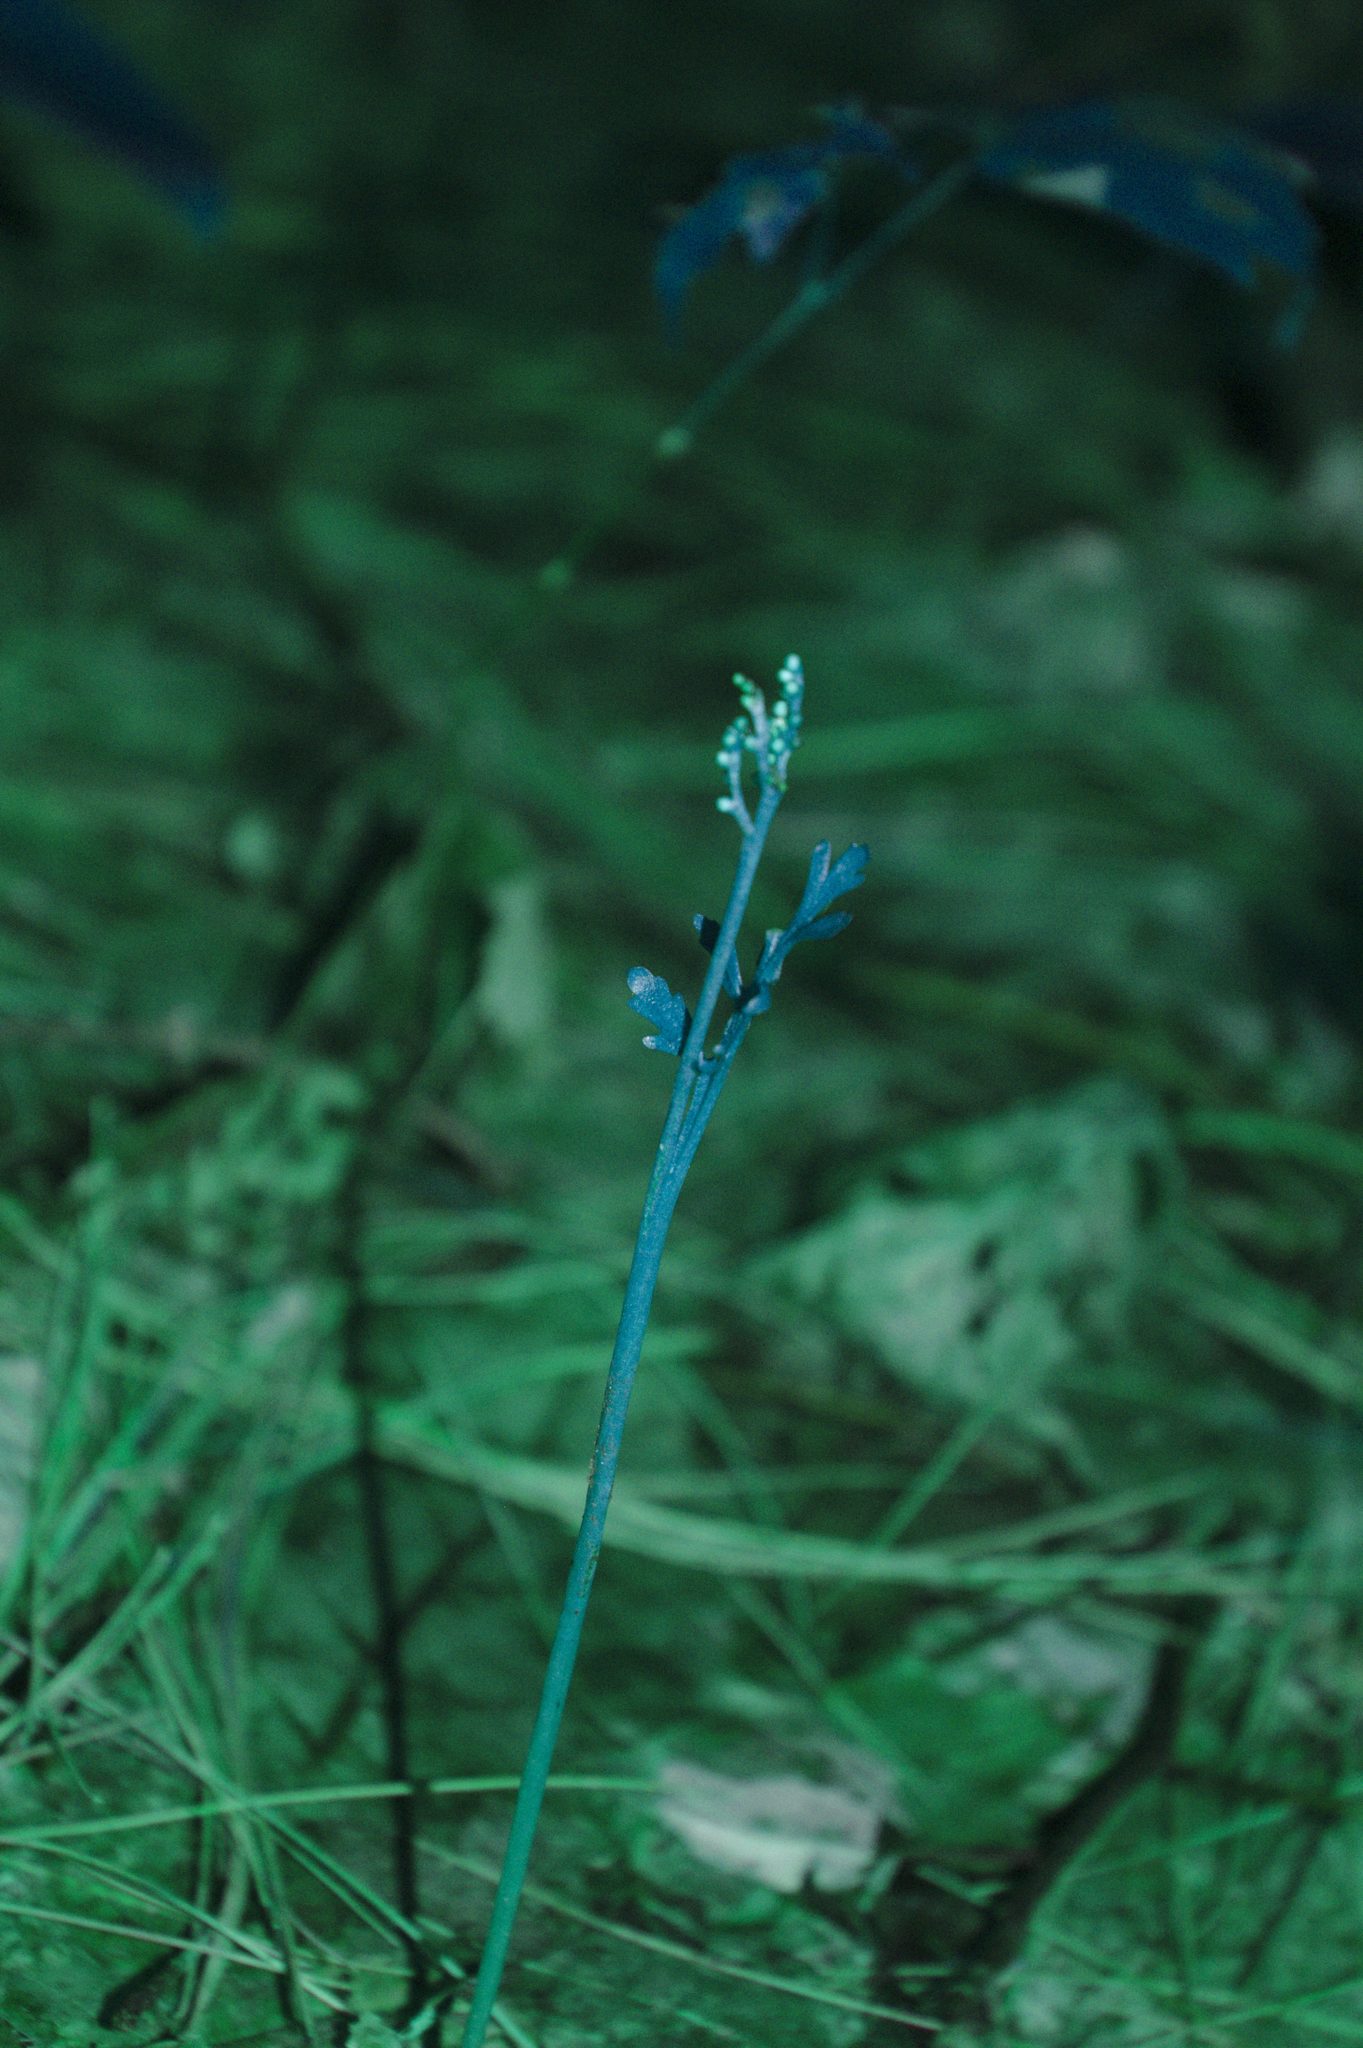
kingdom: Plantae
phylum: Tracheophyta
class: Polypodiopsida
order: Ophioglossales
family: Ophioglossaceae
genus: Botrychium
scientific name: Botrychium matricariifolium
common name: Branched moonwort
